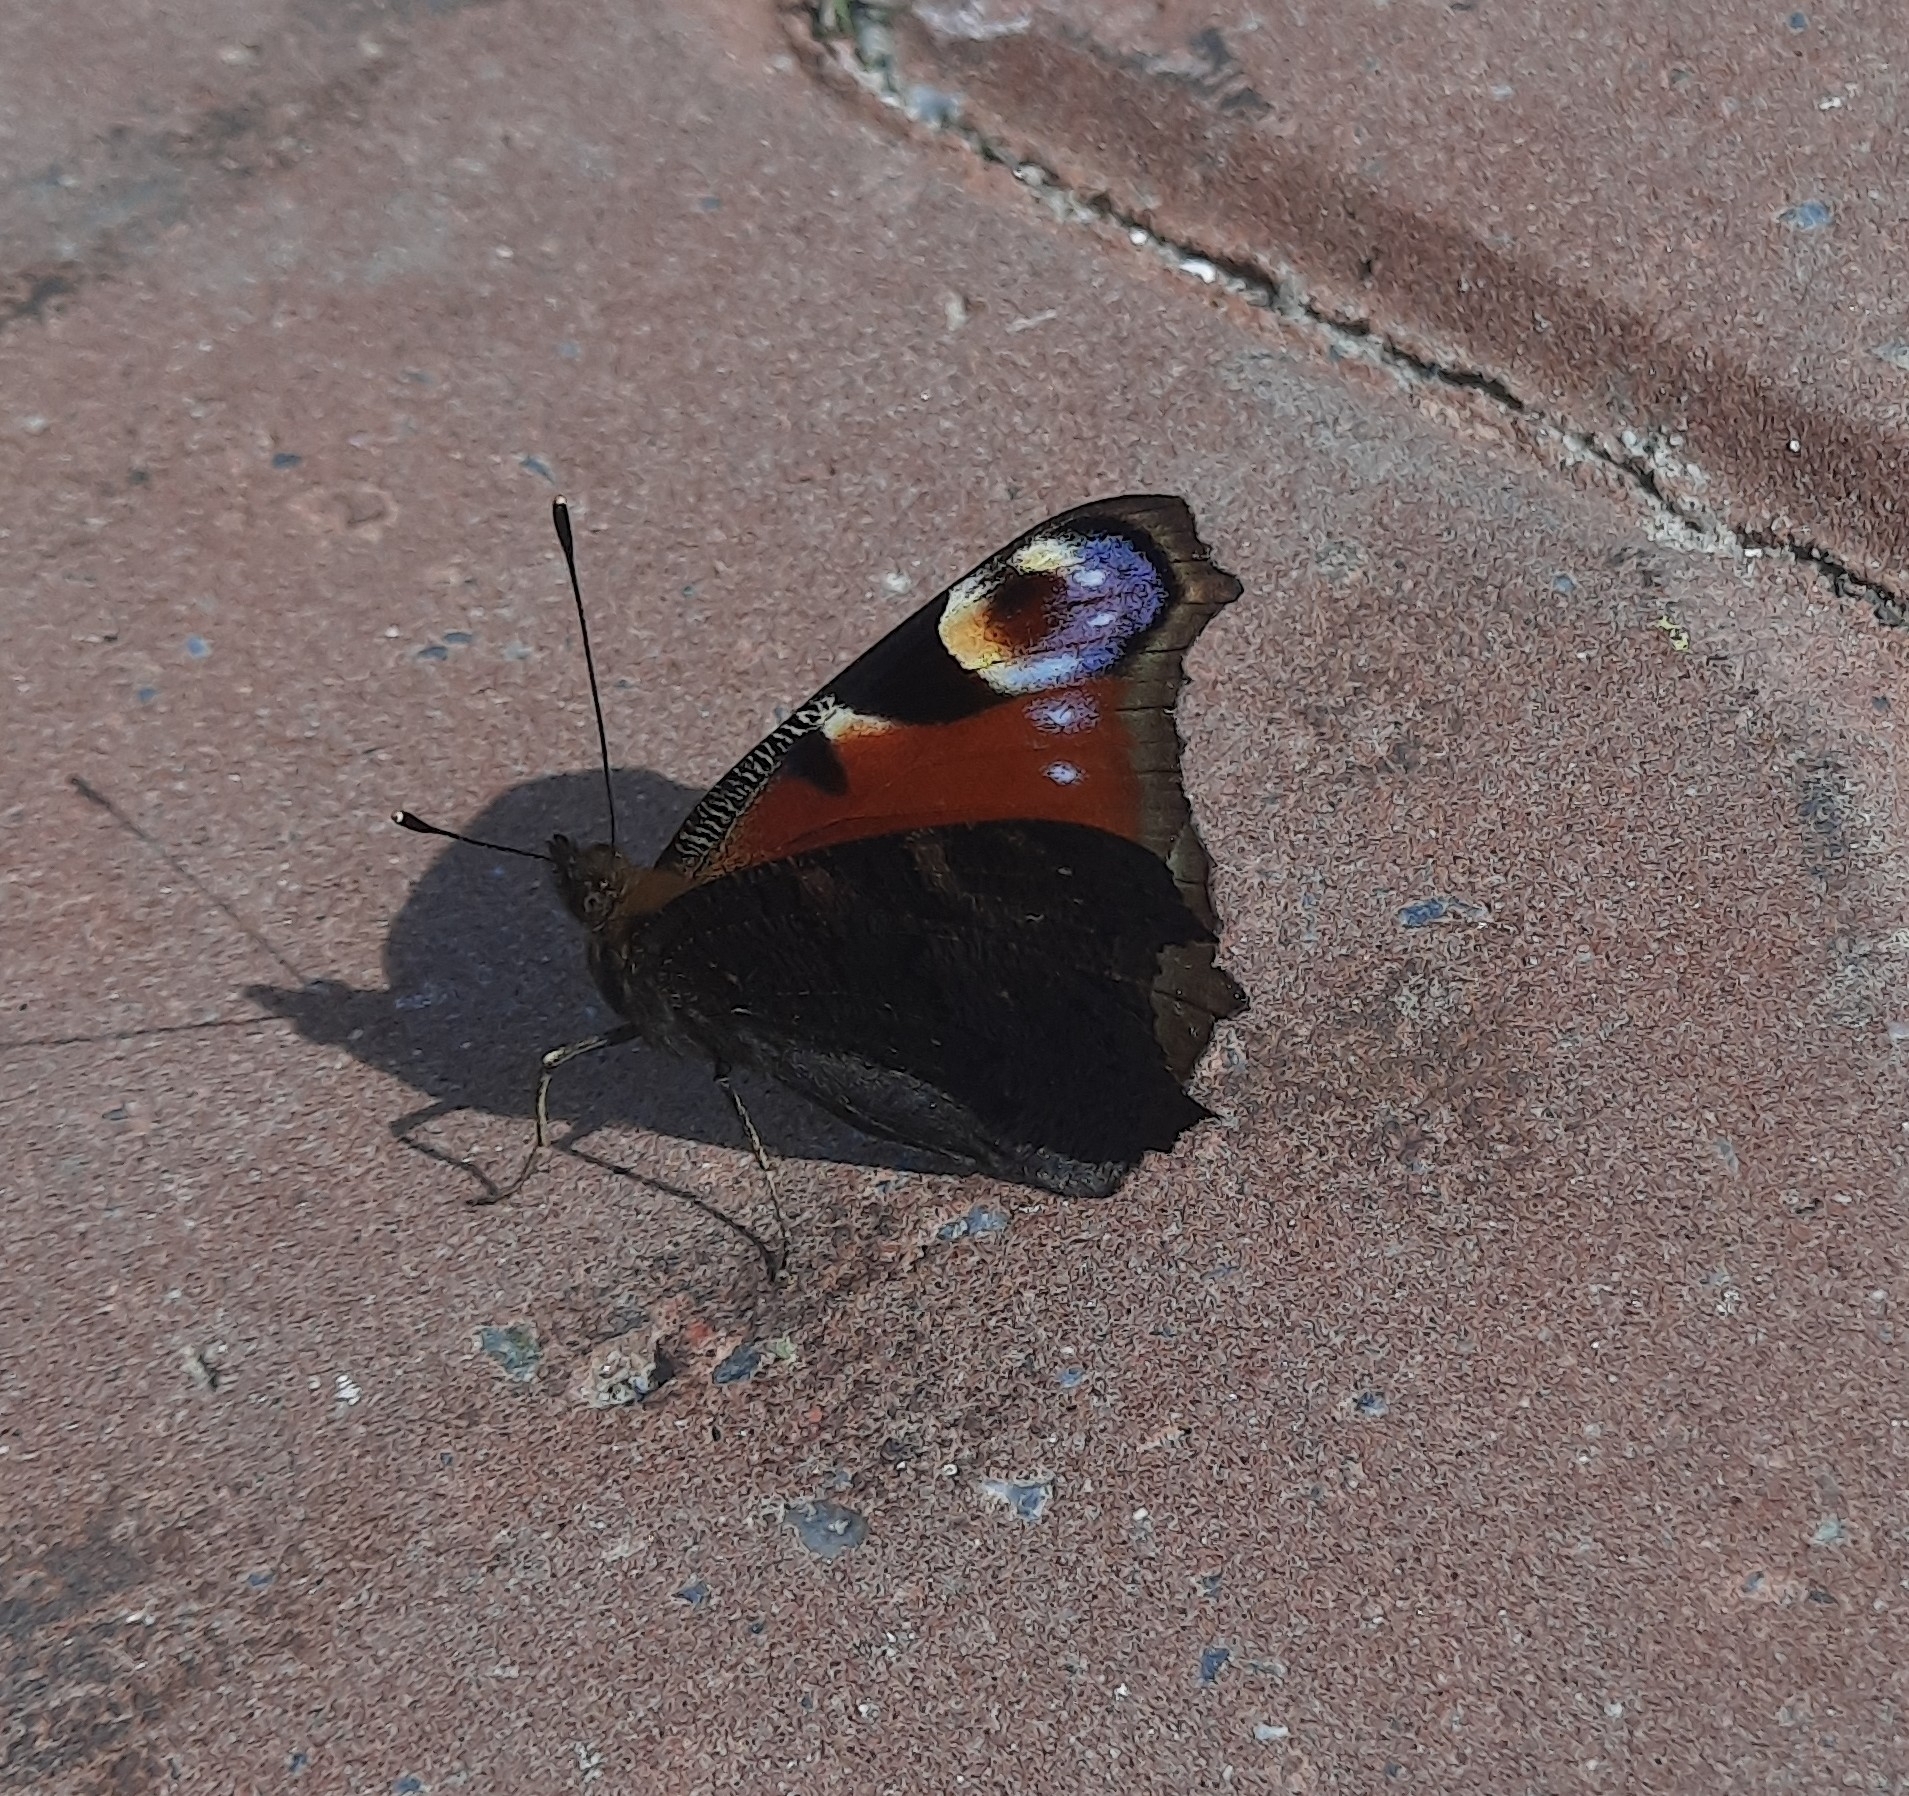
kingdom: Animalia
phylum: Arthropoda
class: Insecta
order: Lepidoptera
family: Nymphalidae
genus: Aglais
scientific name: Aglais io
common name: Peacock
